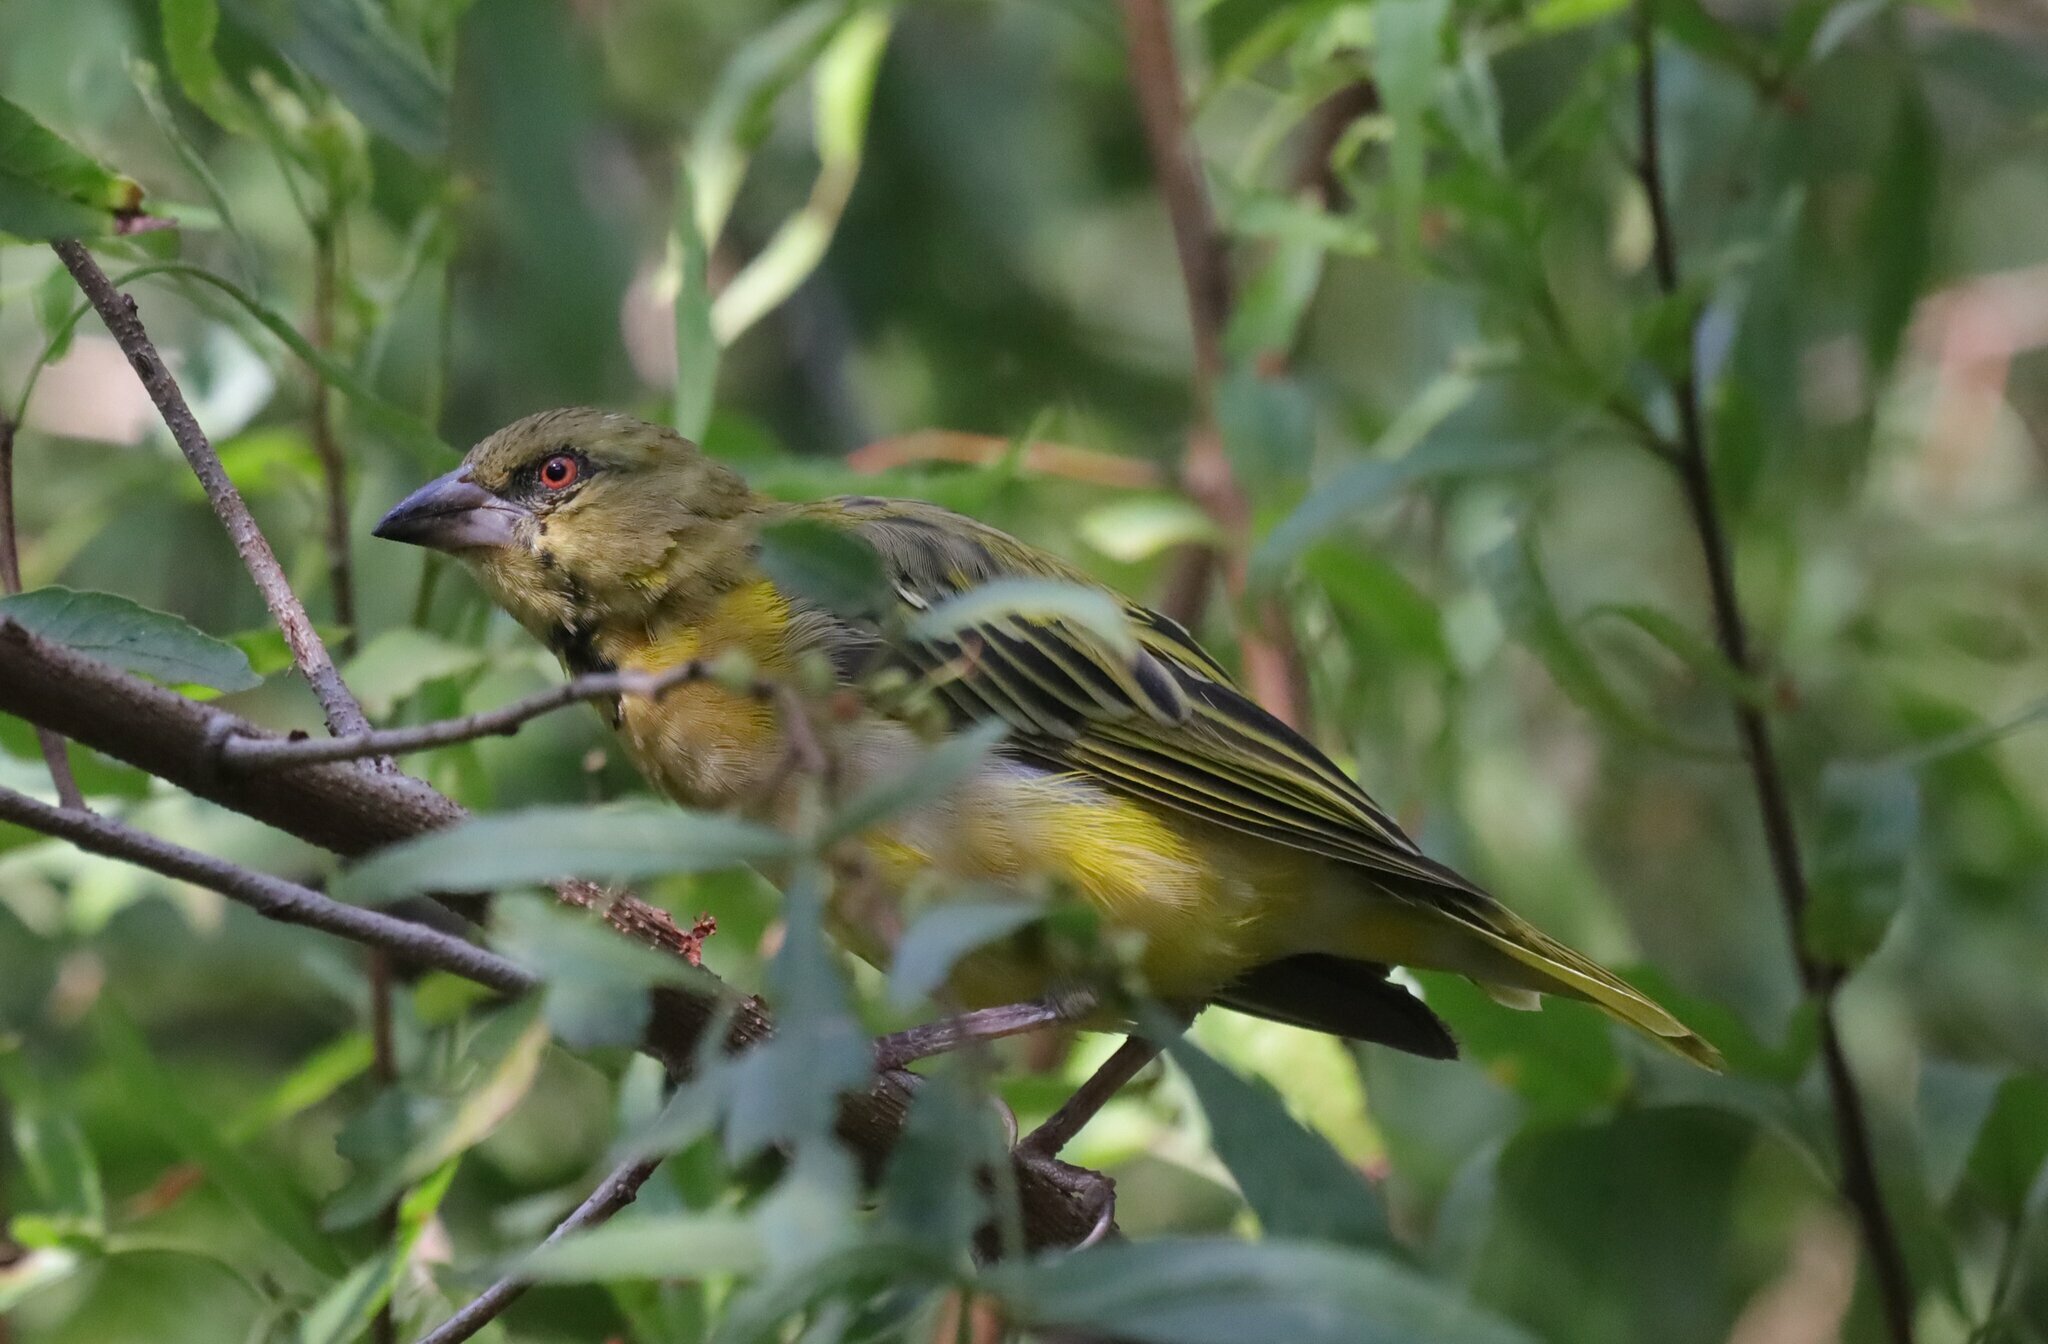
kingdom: Animalia
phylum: Chordata
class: Aves
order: Passeriformes
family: Ploceidae
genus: Ploceus
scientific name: Ploceus velatus
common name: Southern masked weaver
